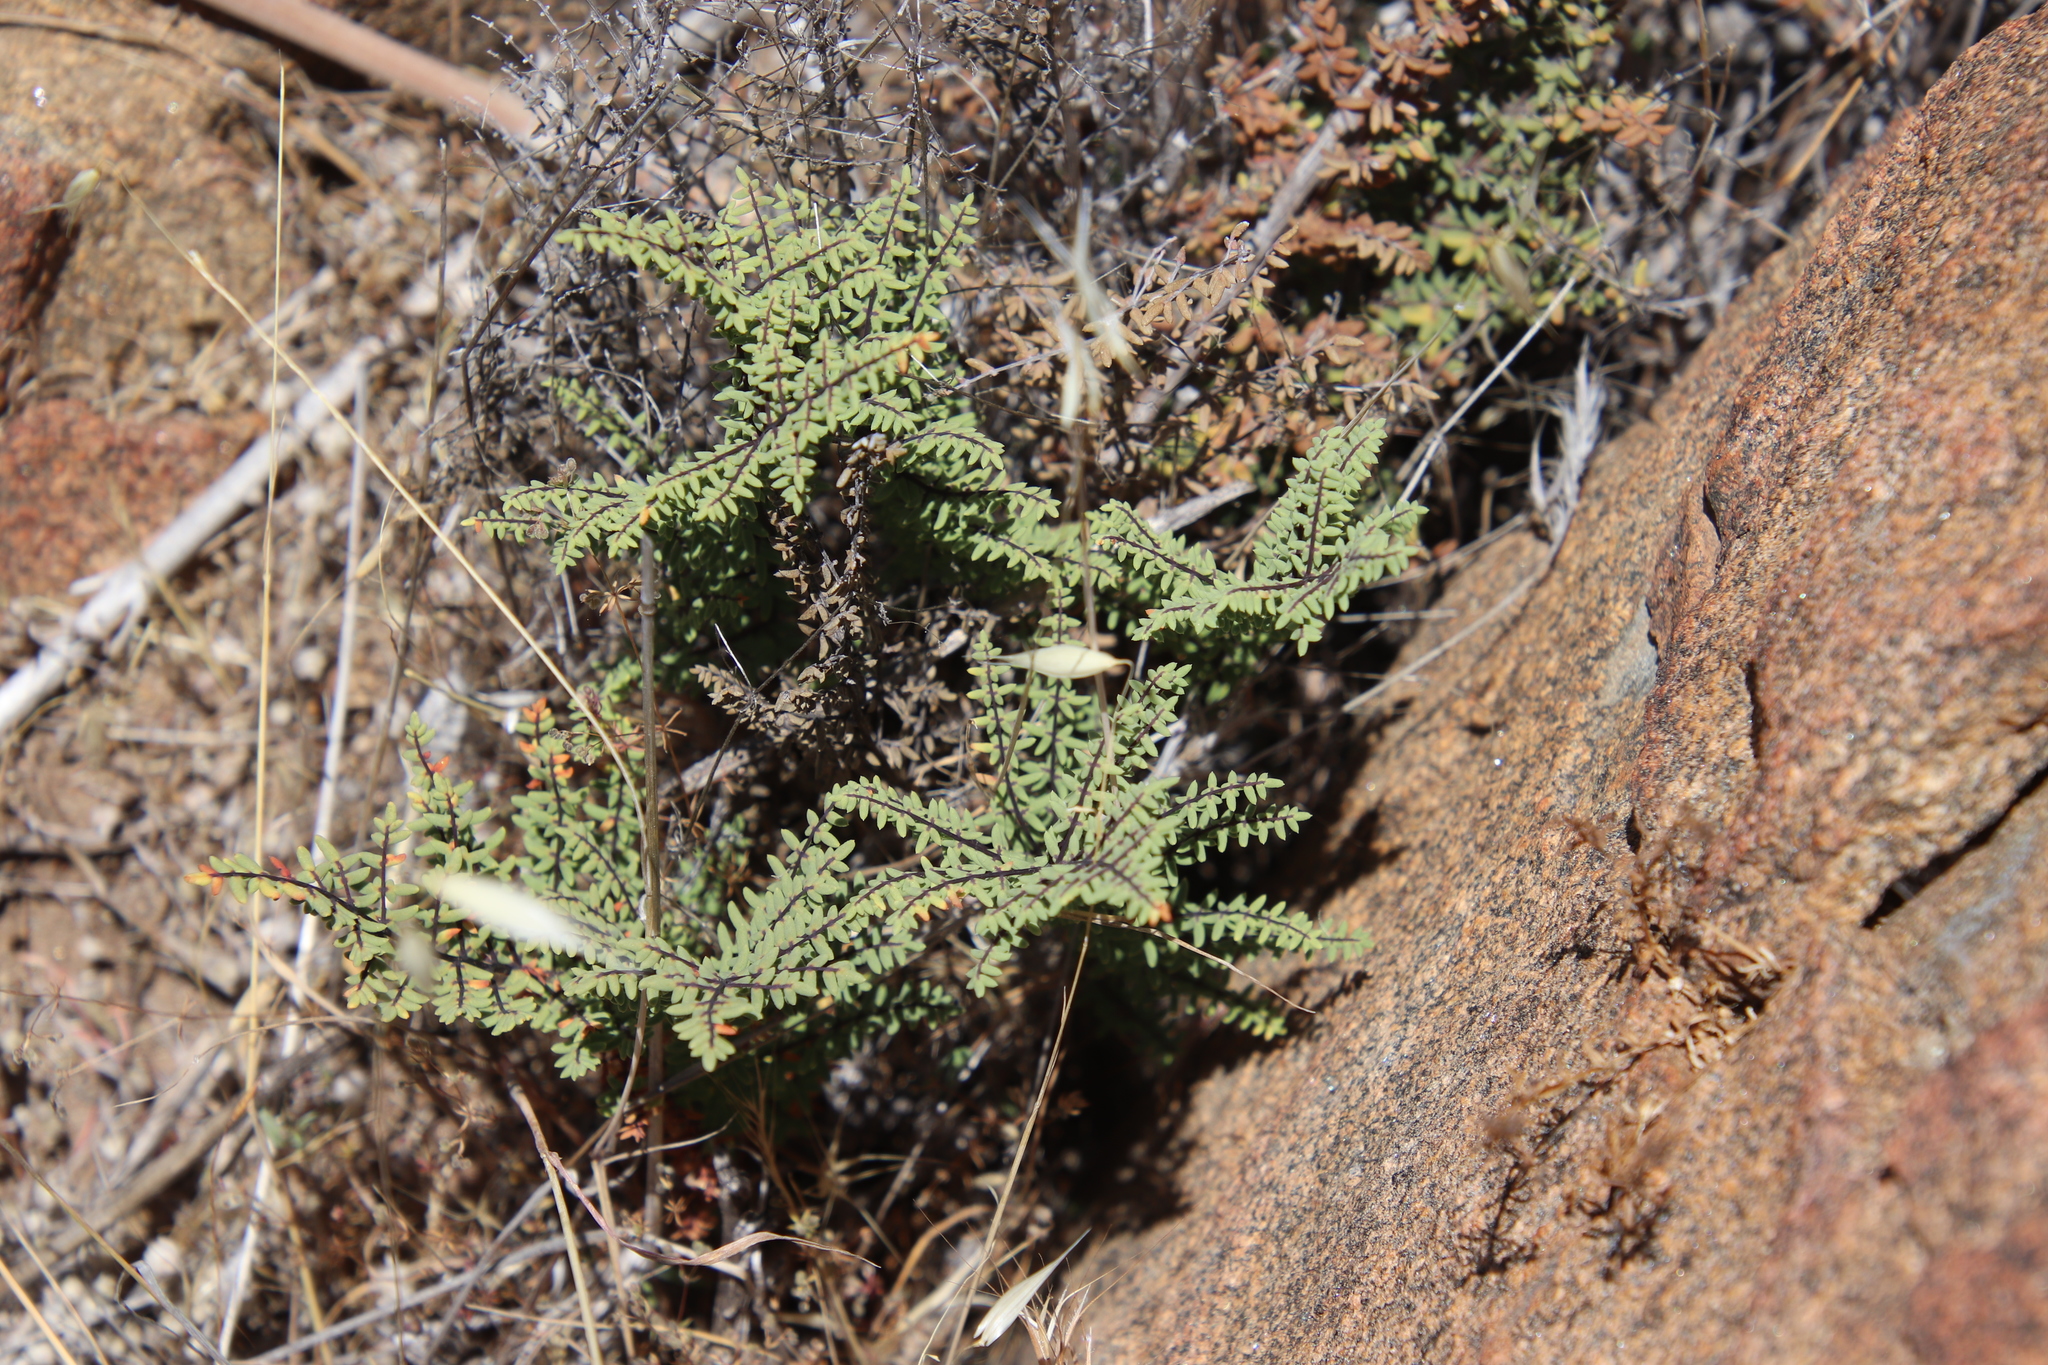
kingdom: Plantae
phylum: Tracheophyta
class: Polypodiopsida
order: Polypodiales
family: Pteridaceae
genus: Pellaea
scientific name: Pellaea mucronata
